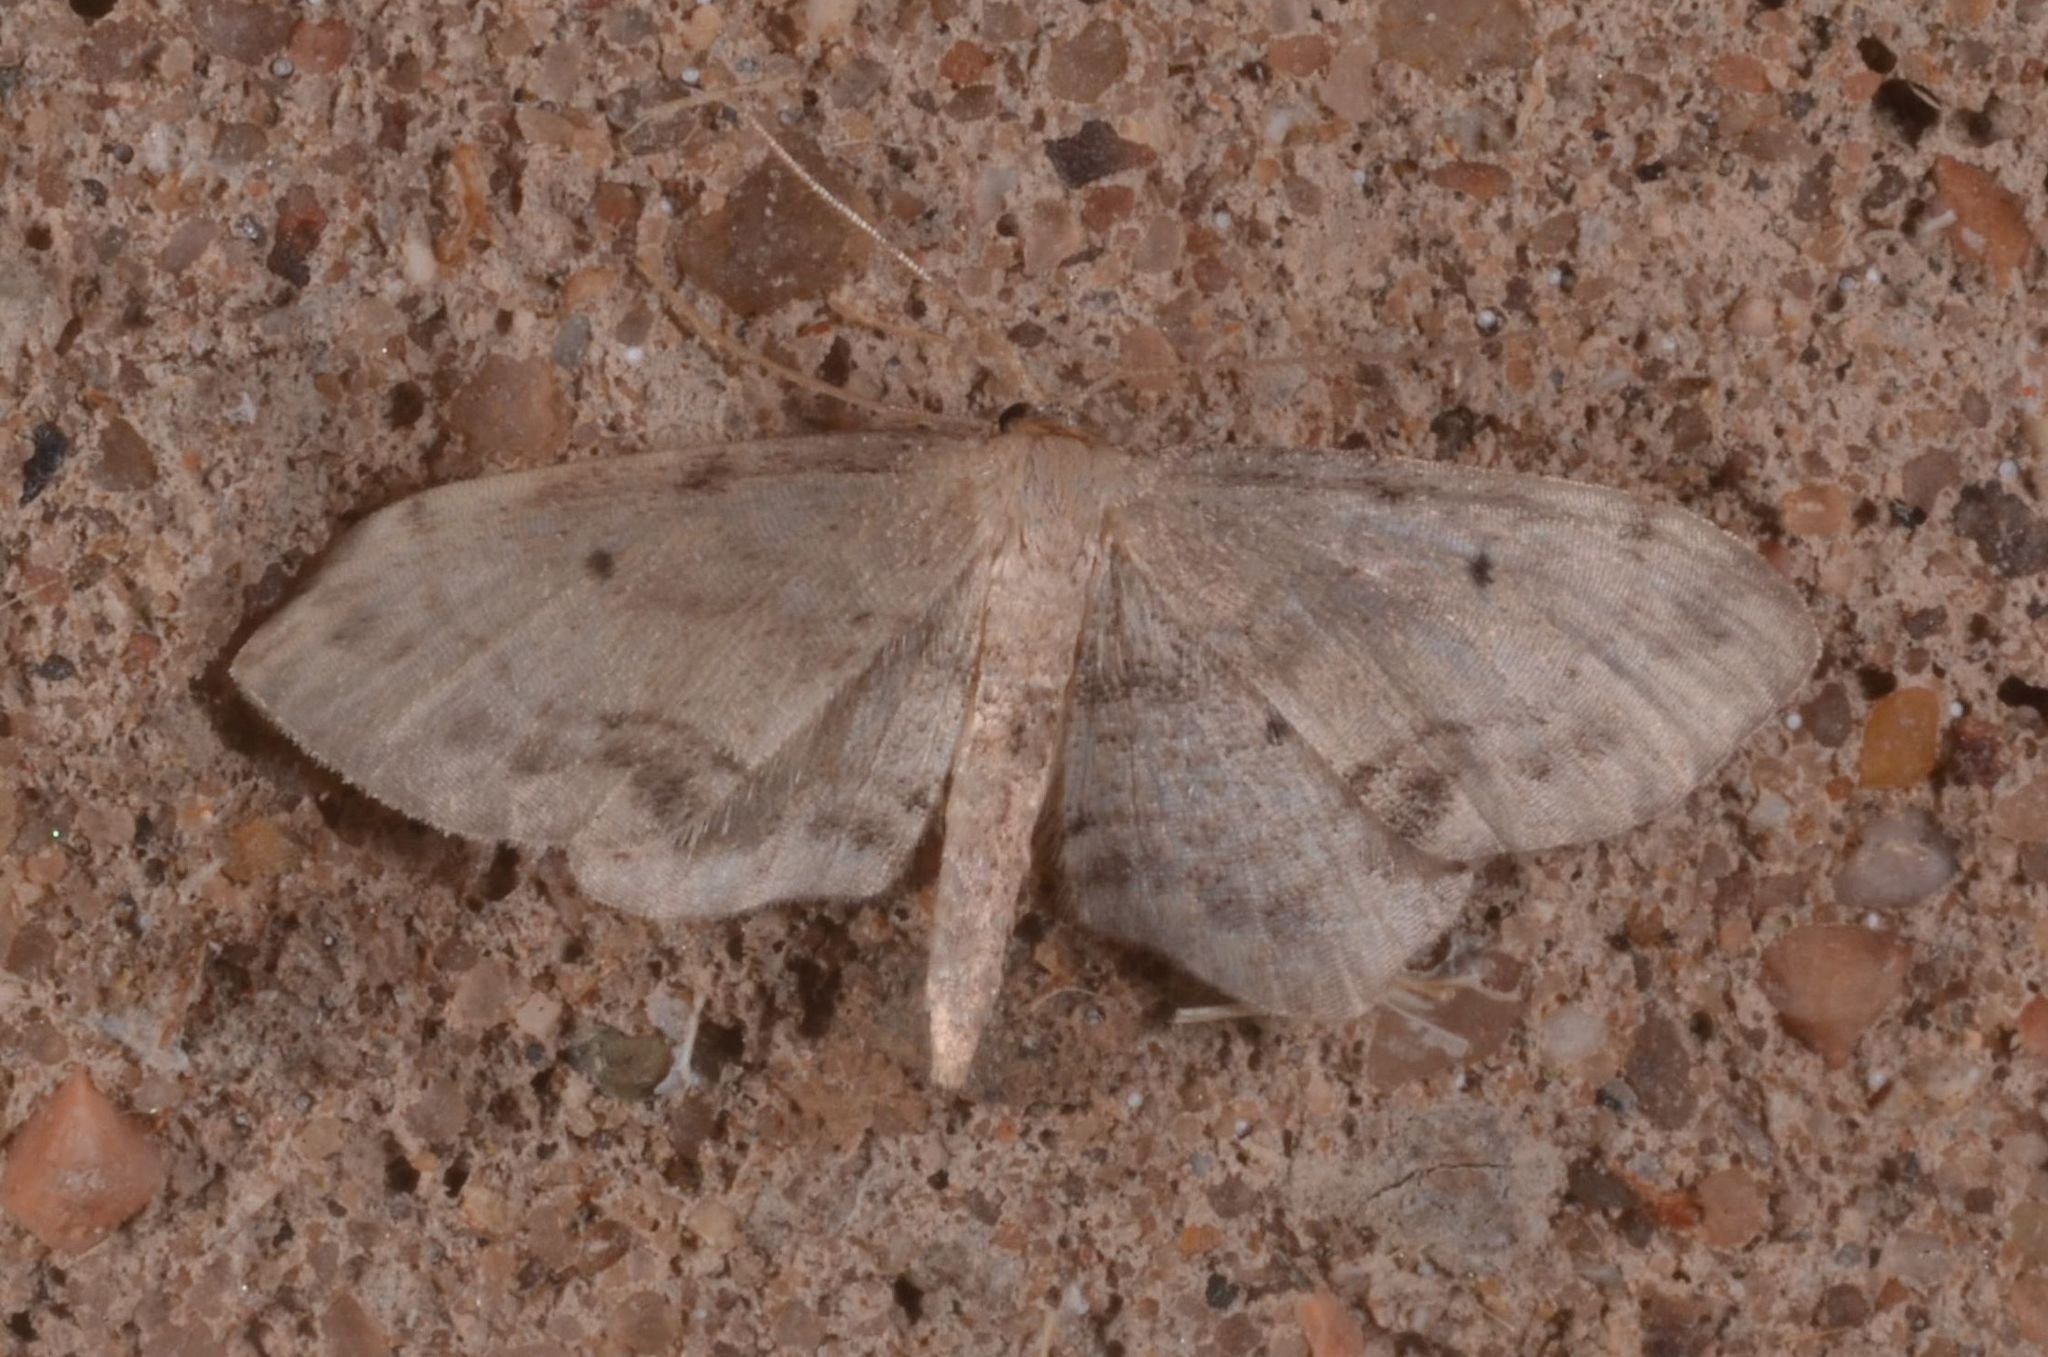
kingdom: Animalia
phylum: Arthropoda
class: Insecta
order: Lepidoptera
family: Geometridae
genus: Idaea
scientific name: Idaea dimidiata
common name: Single-dotted wave
